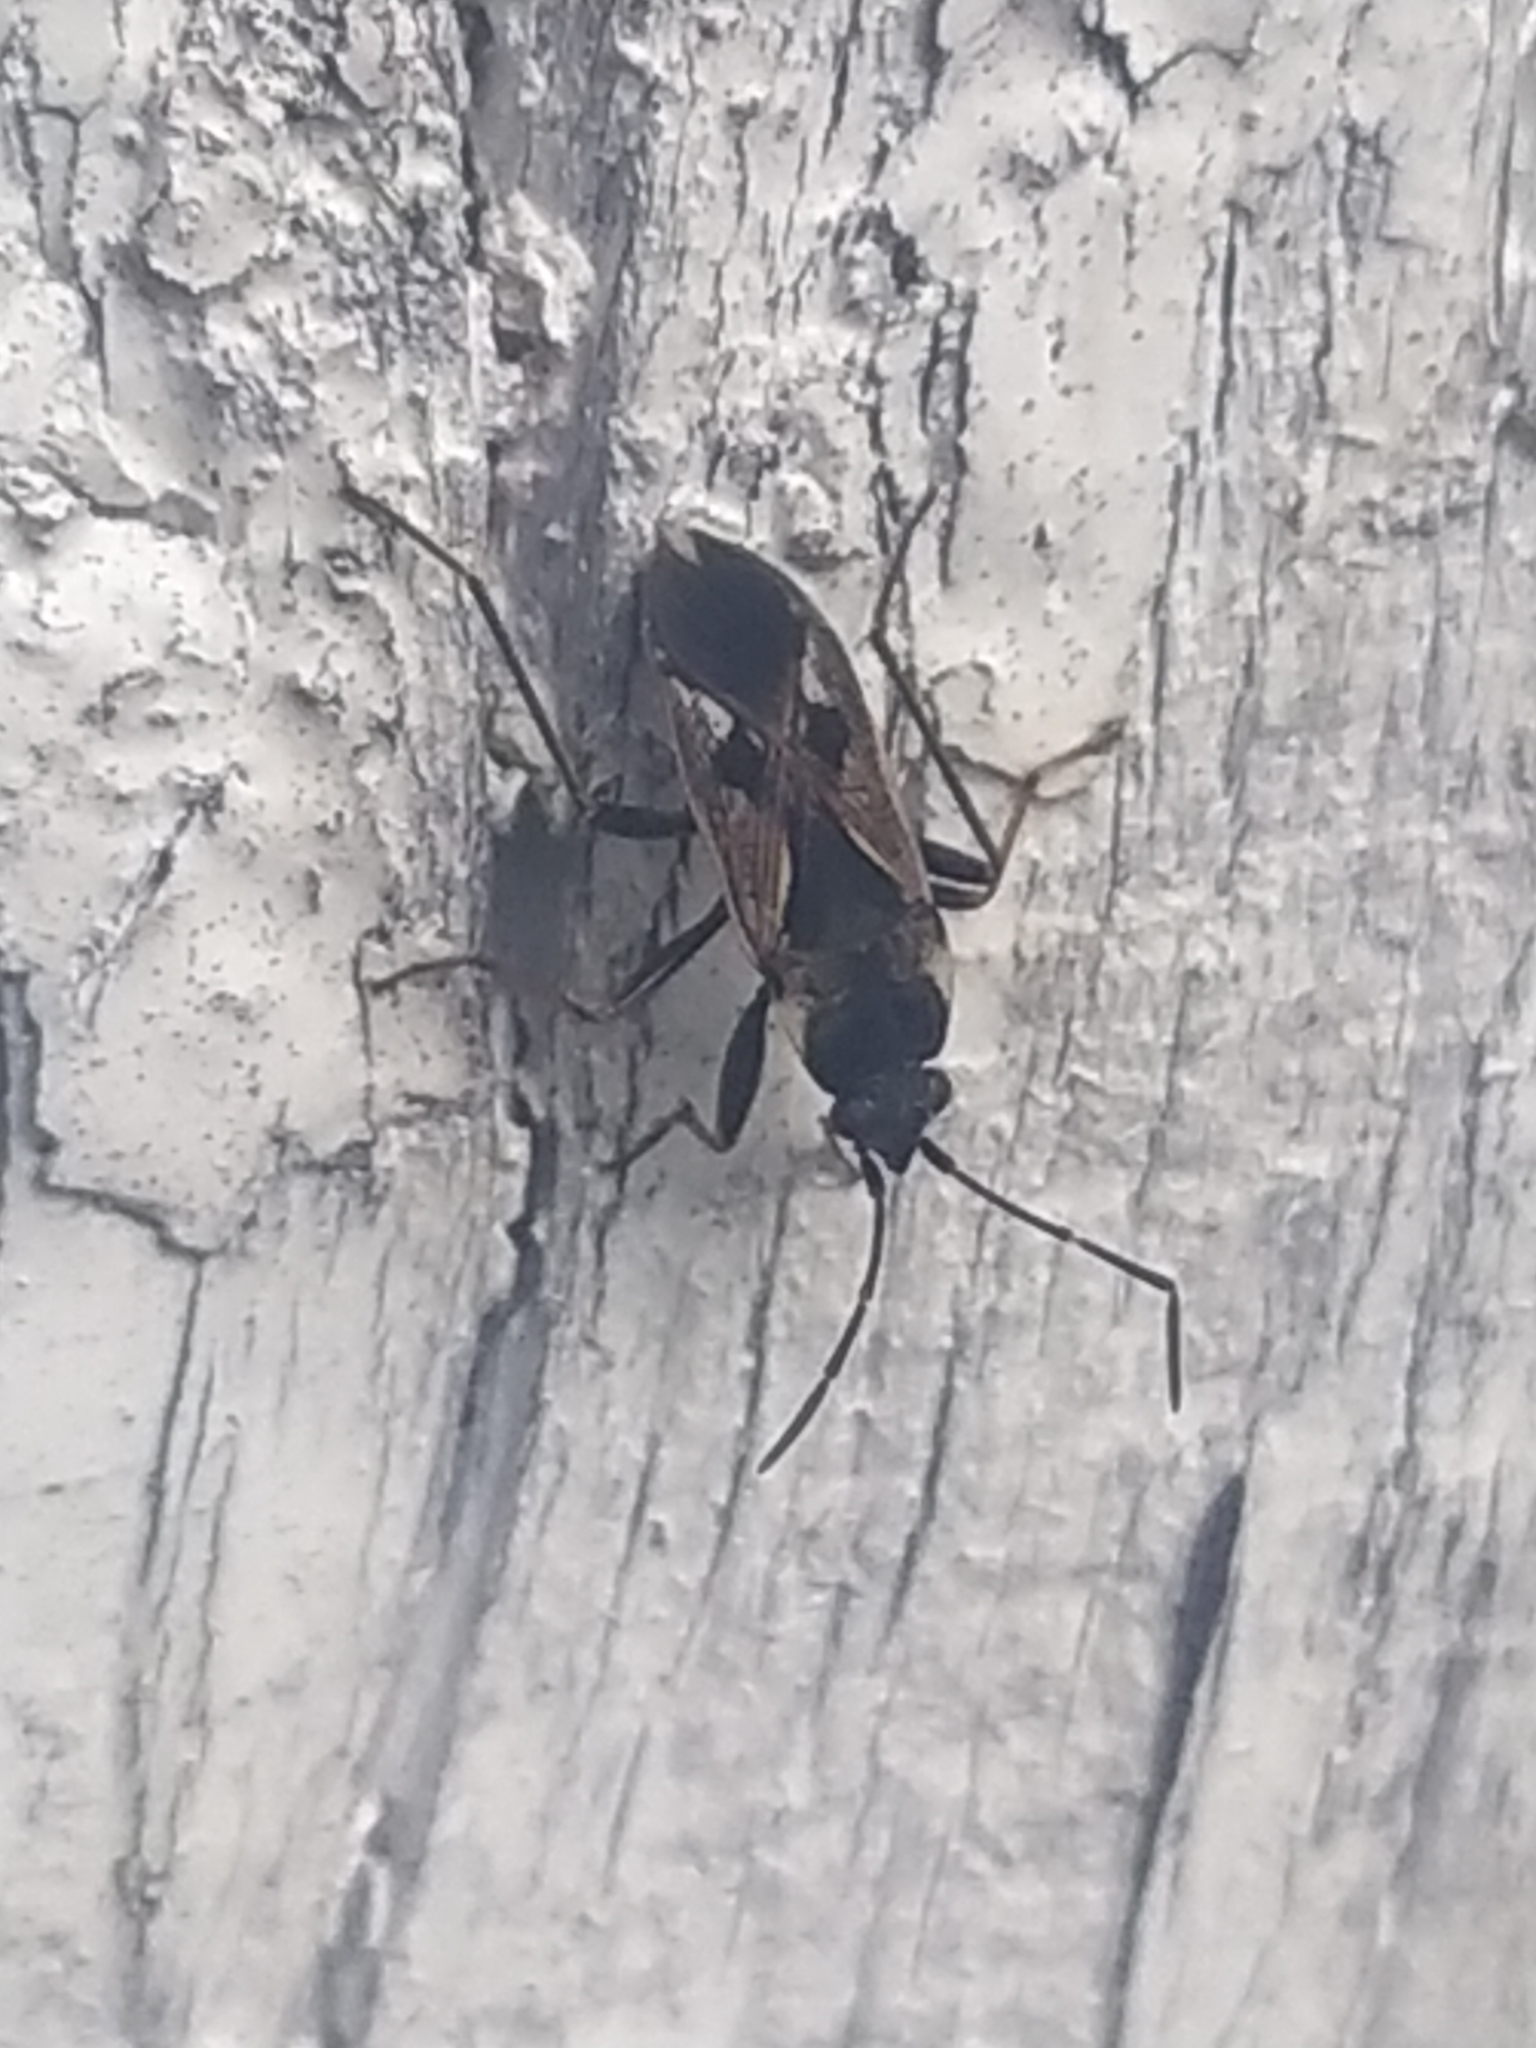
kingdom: Animalia
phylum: Arthropoda
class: Insecta
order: Hemiptera
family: Rhyparochromidae
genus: Rhyparochromus
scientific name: Rhyparochromus vulgaris
